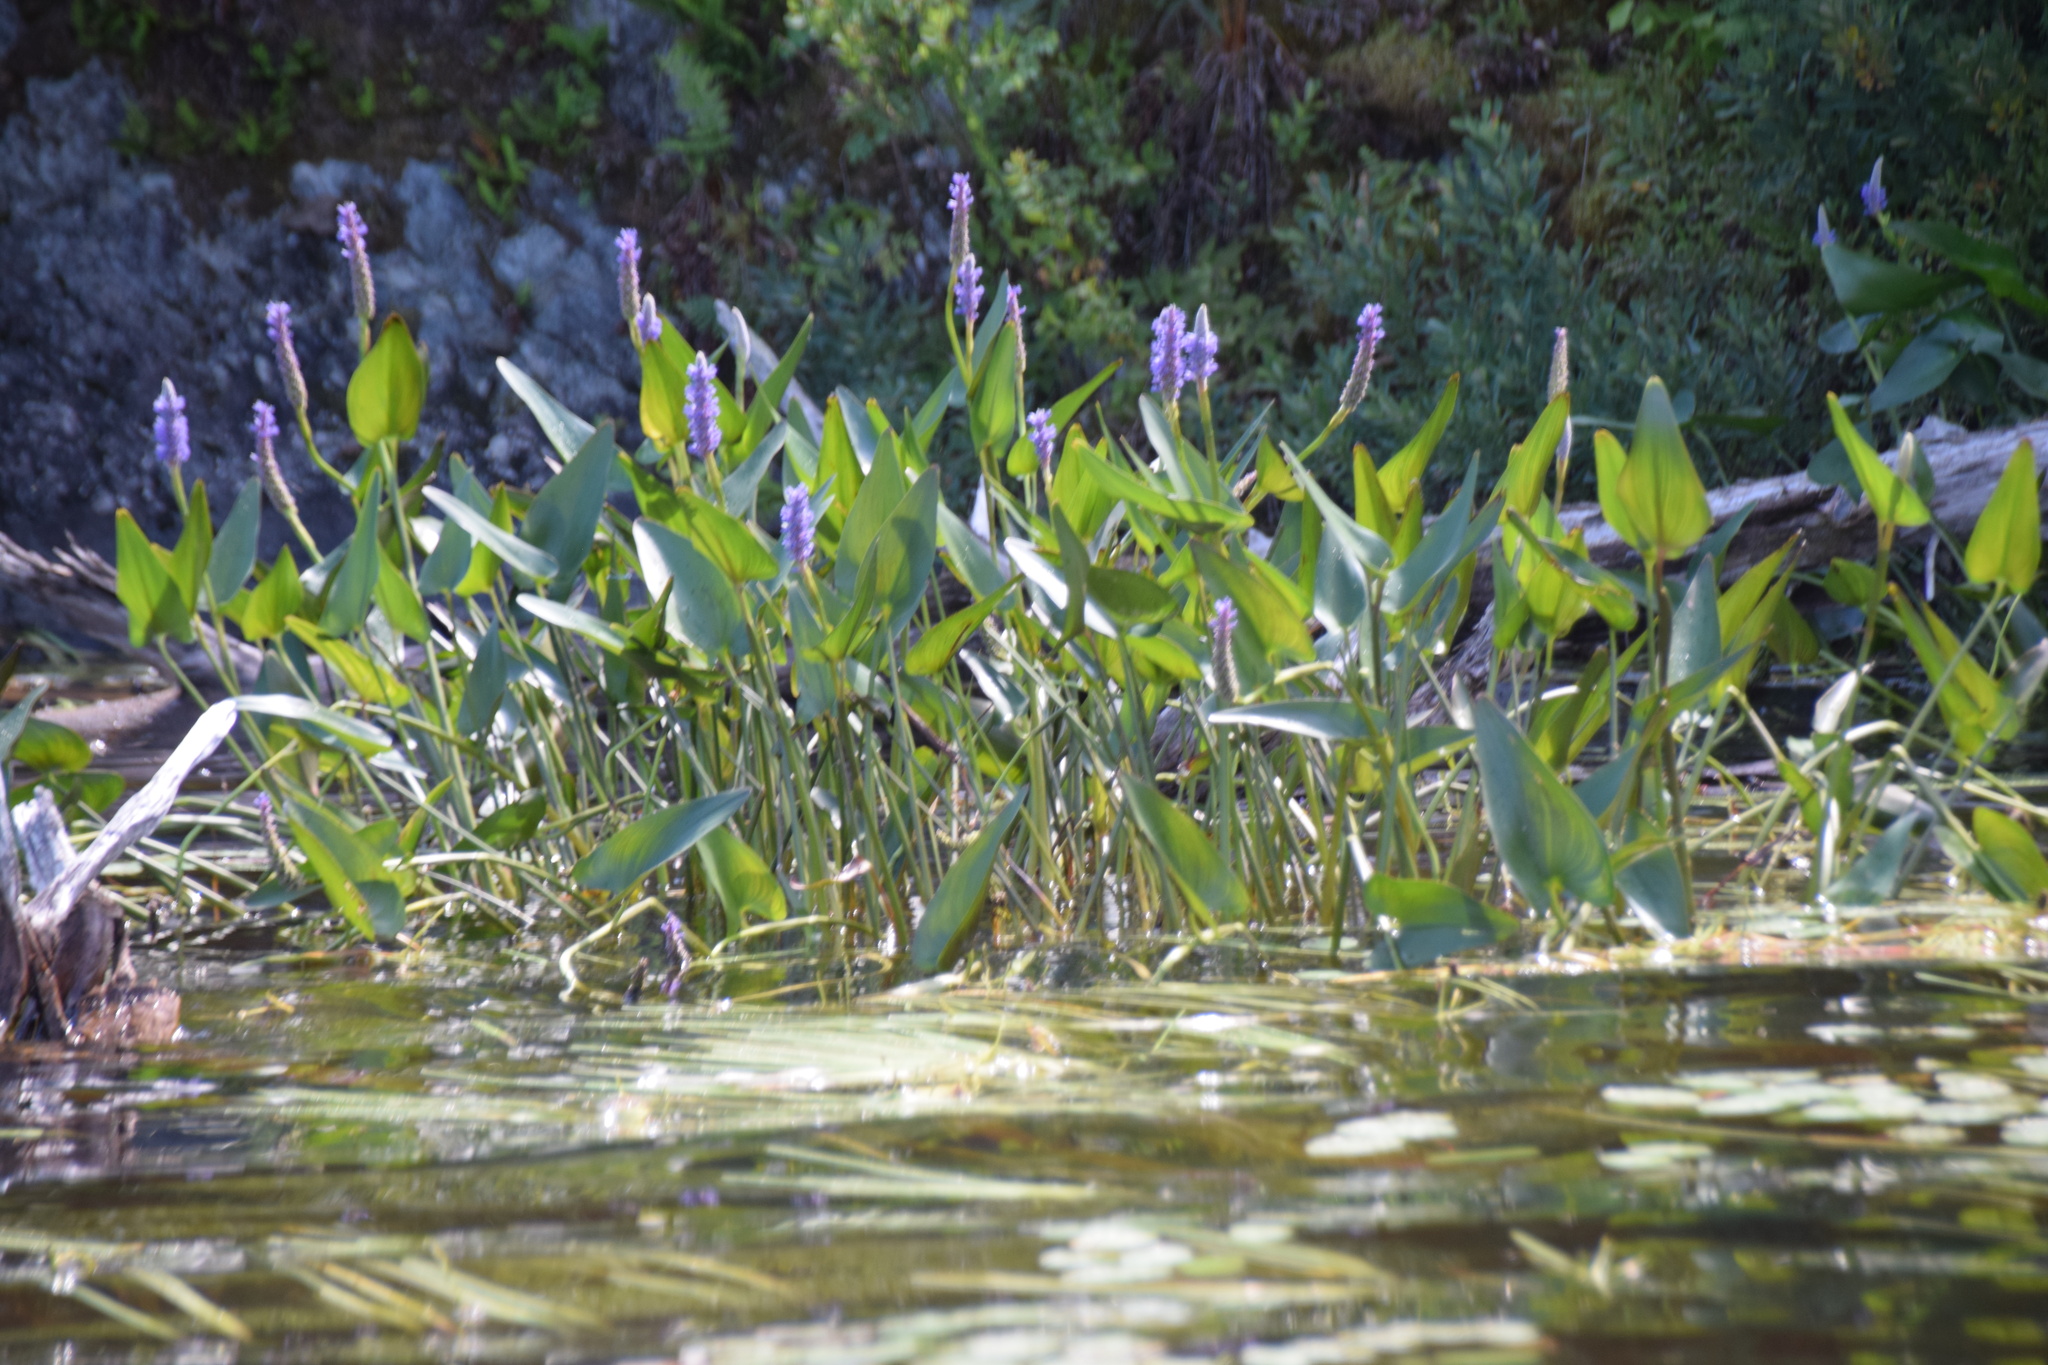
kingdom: Plantae
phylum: Tracheophyta
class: Liliopsida
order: Commelinales
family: Pontederiaceae
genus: Pontederia
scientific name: Pontederia cordata
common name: Pickerelweed
